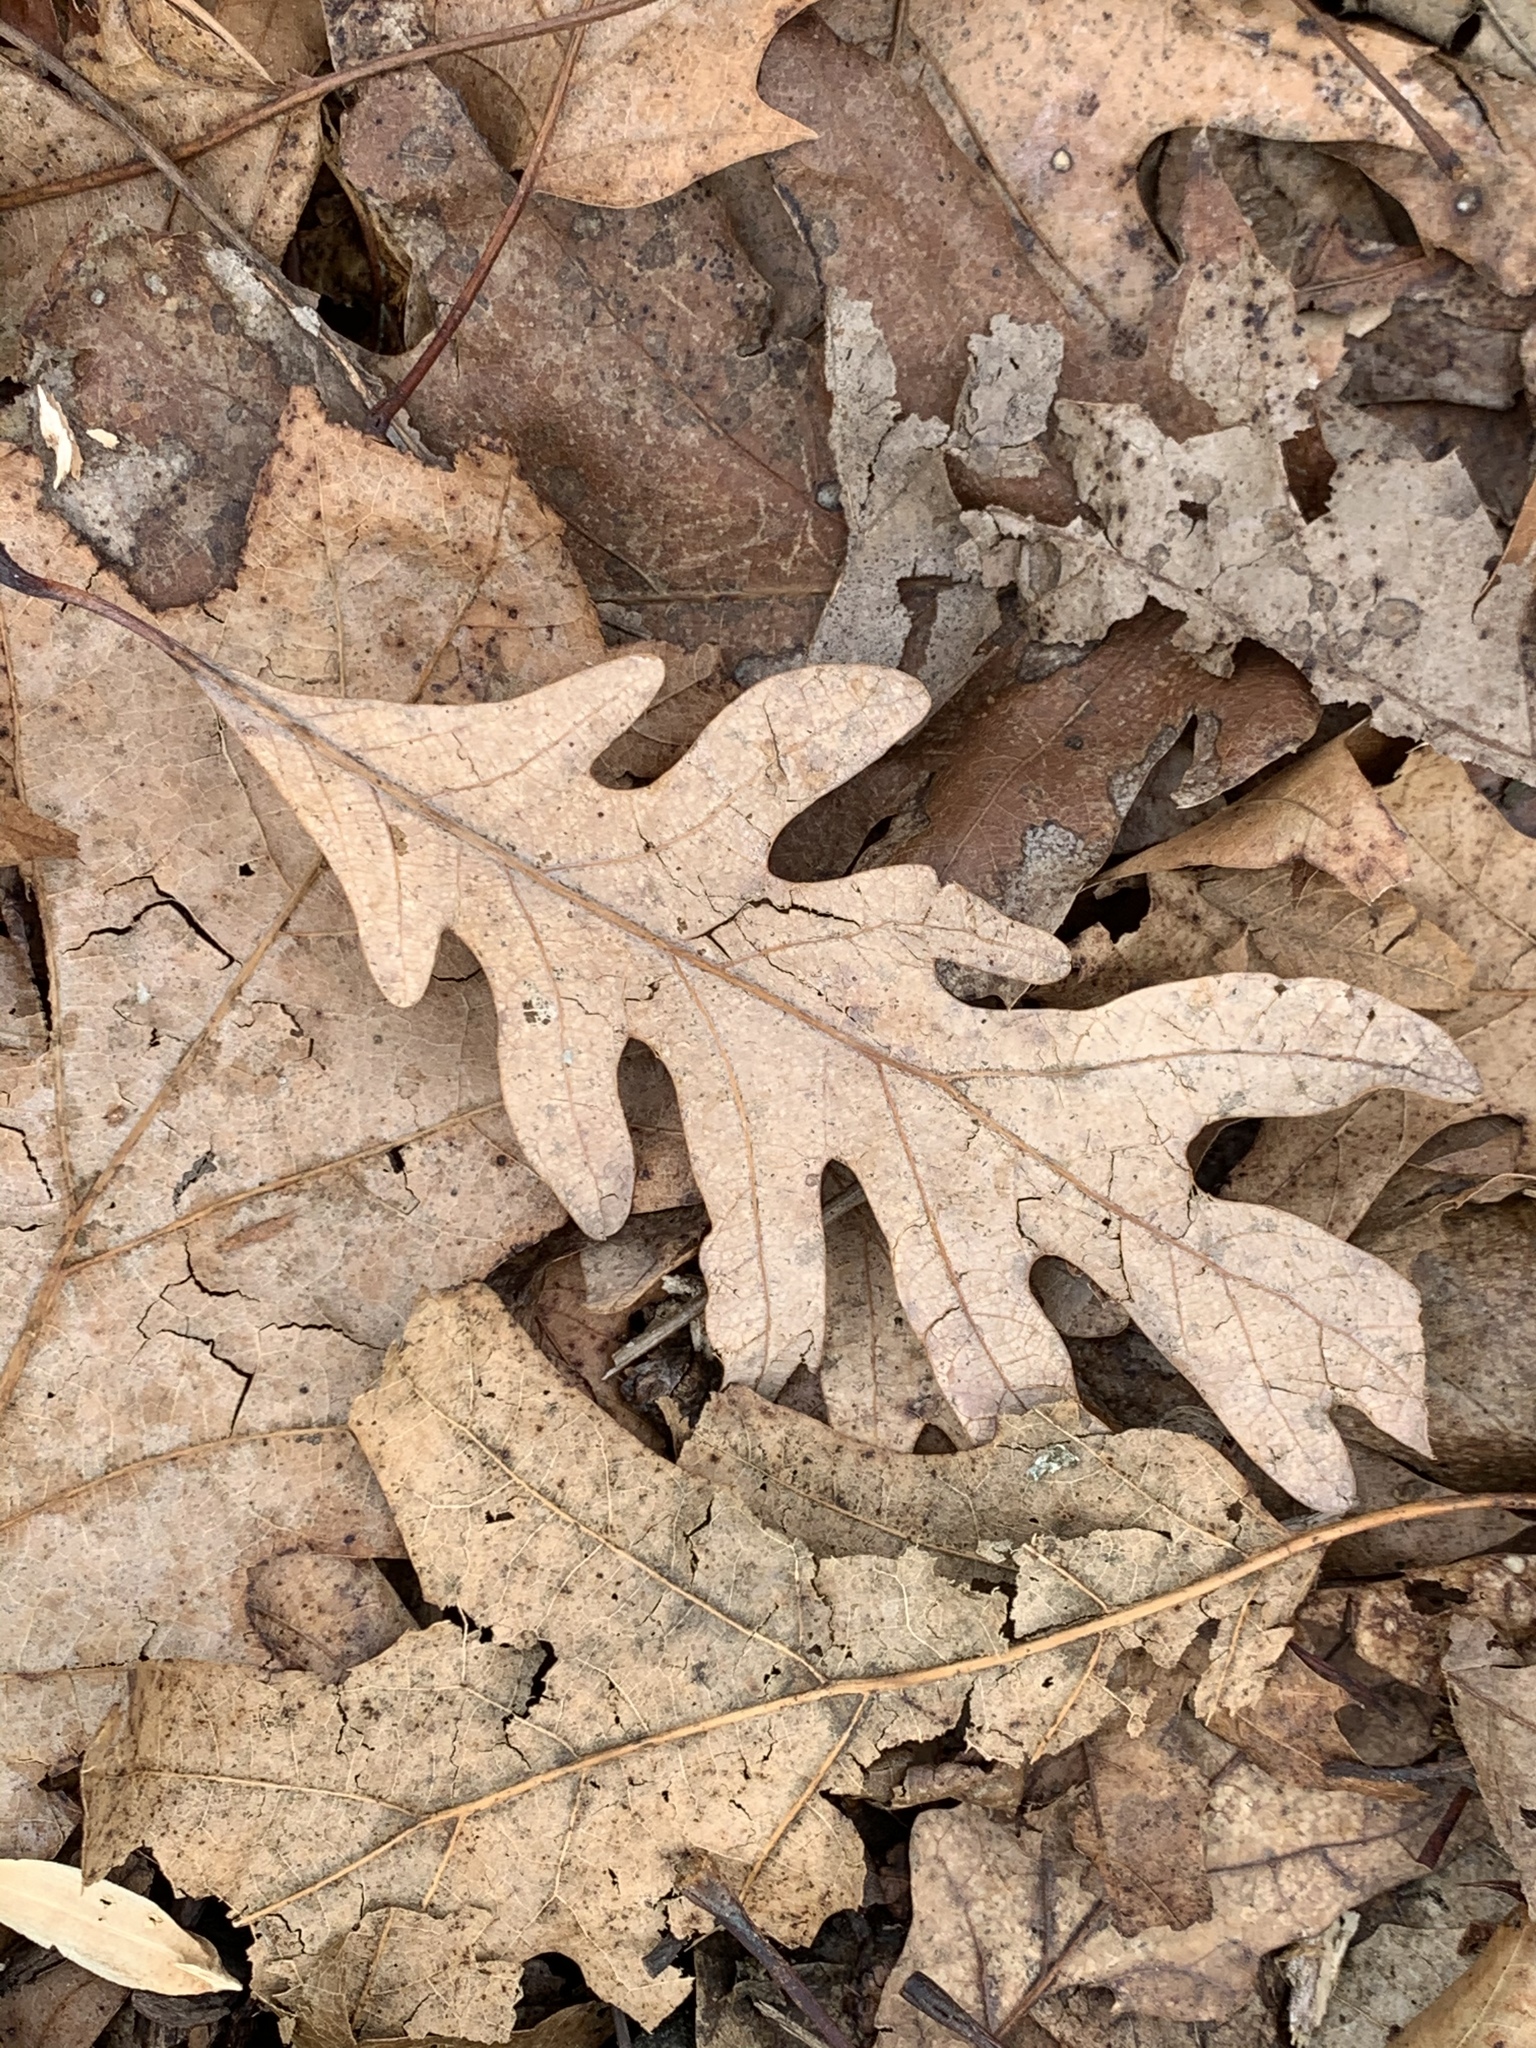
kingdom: Plantae
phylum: Tracheophyta
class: Magnoliopsida
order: Fagales
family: Fagaceae
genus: Quercus
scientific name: Quercus alba
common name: White oak
